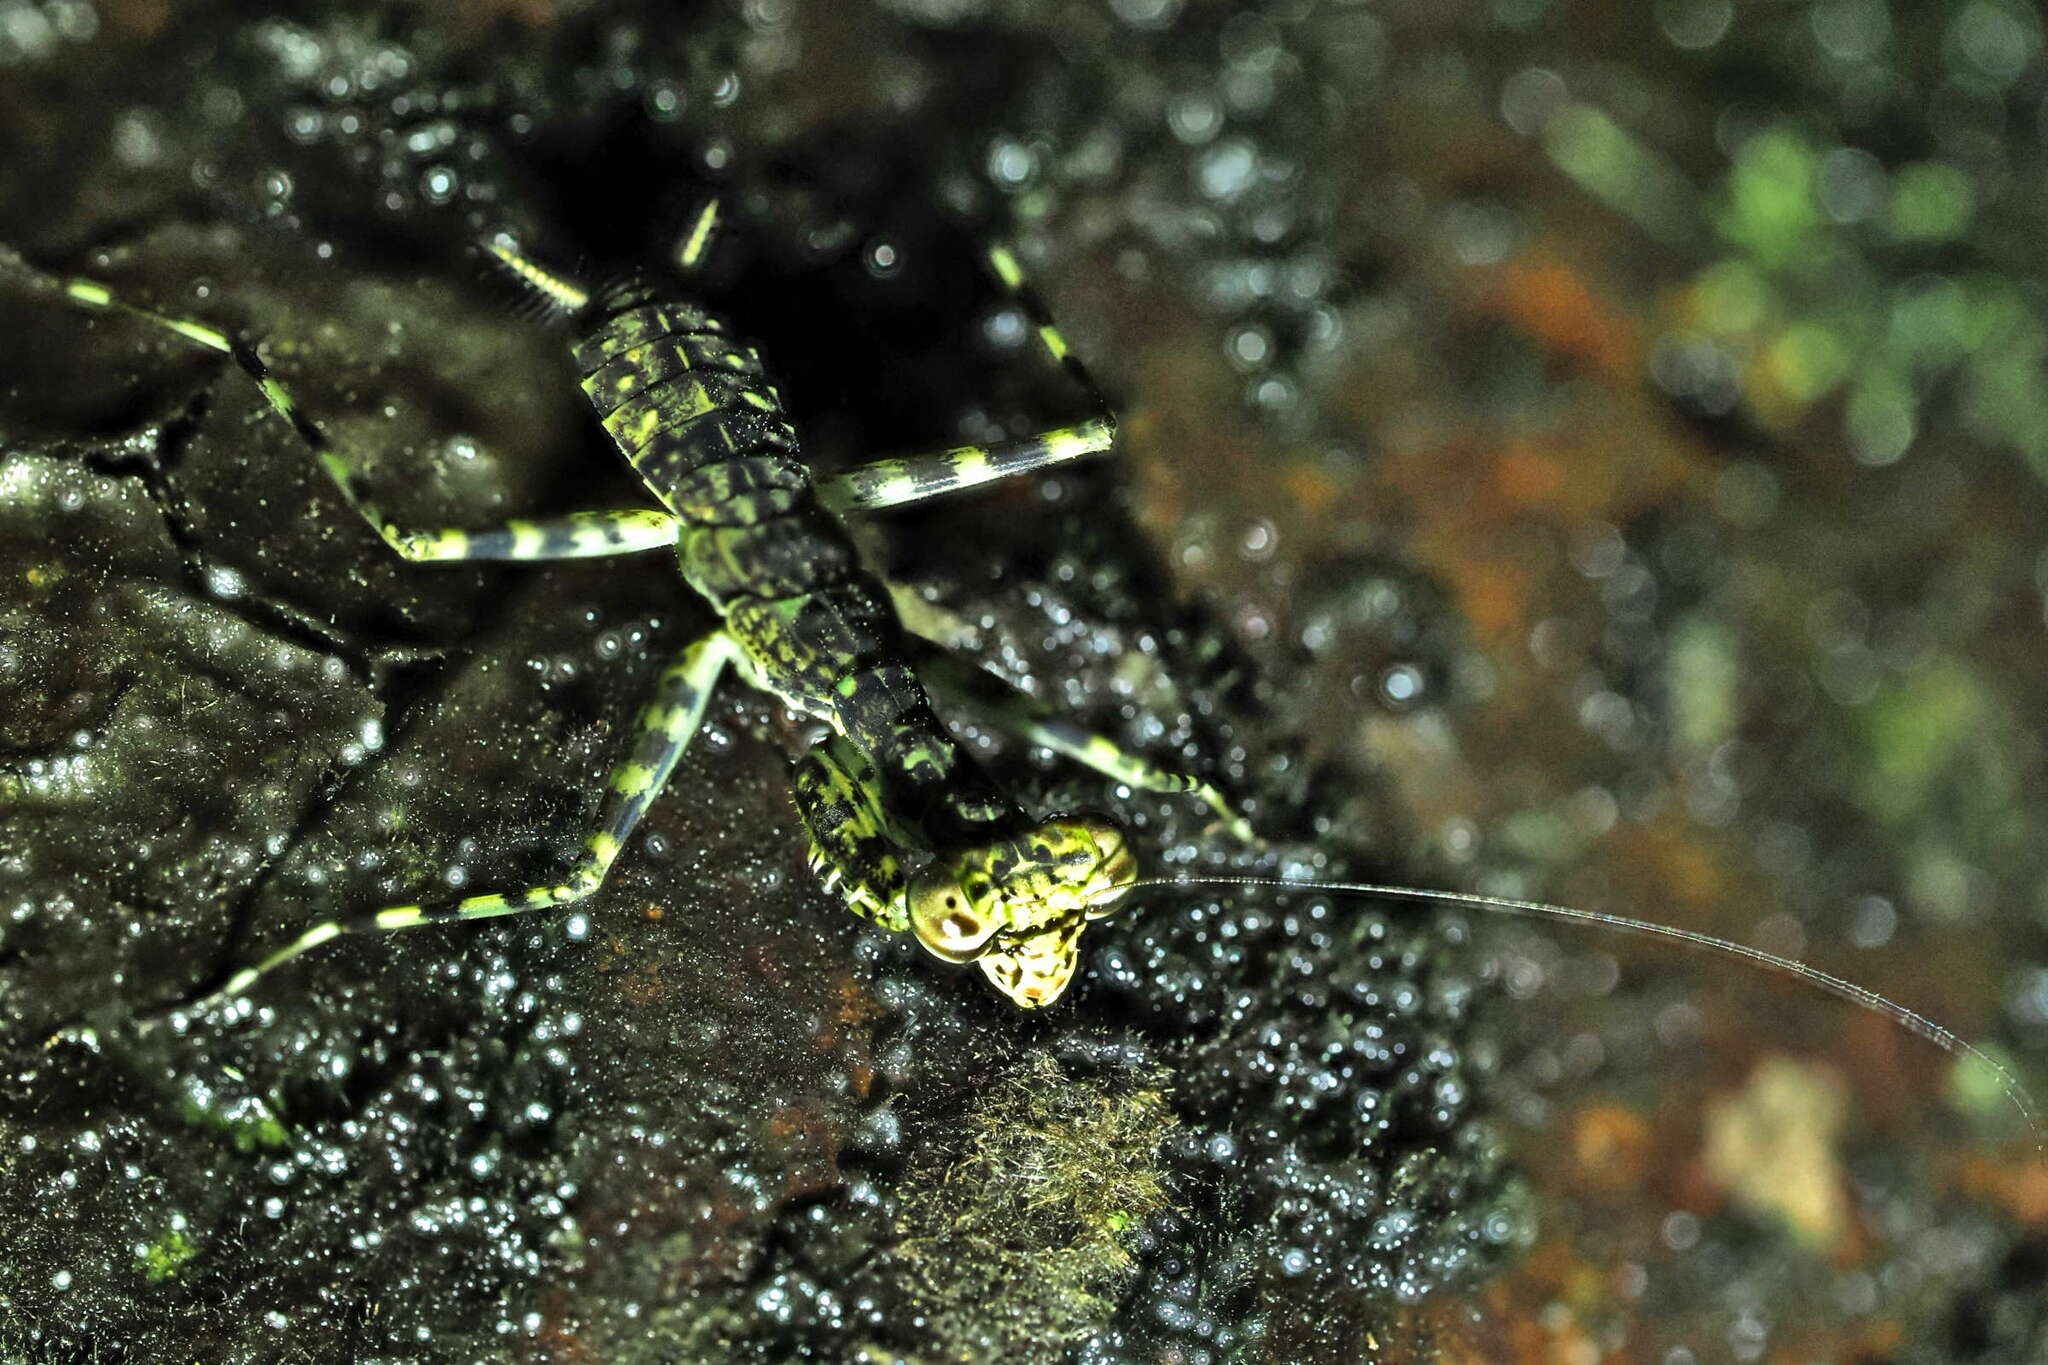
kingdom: Animalia
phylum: Arthropoda
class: Insecta
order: Mantodea
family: Liturgusidae
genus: Liturgusa
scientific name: Liturgusa trinidadensis
